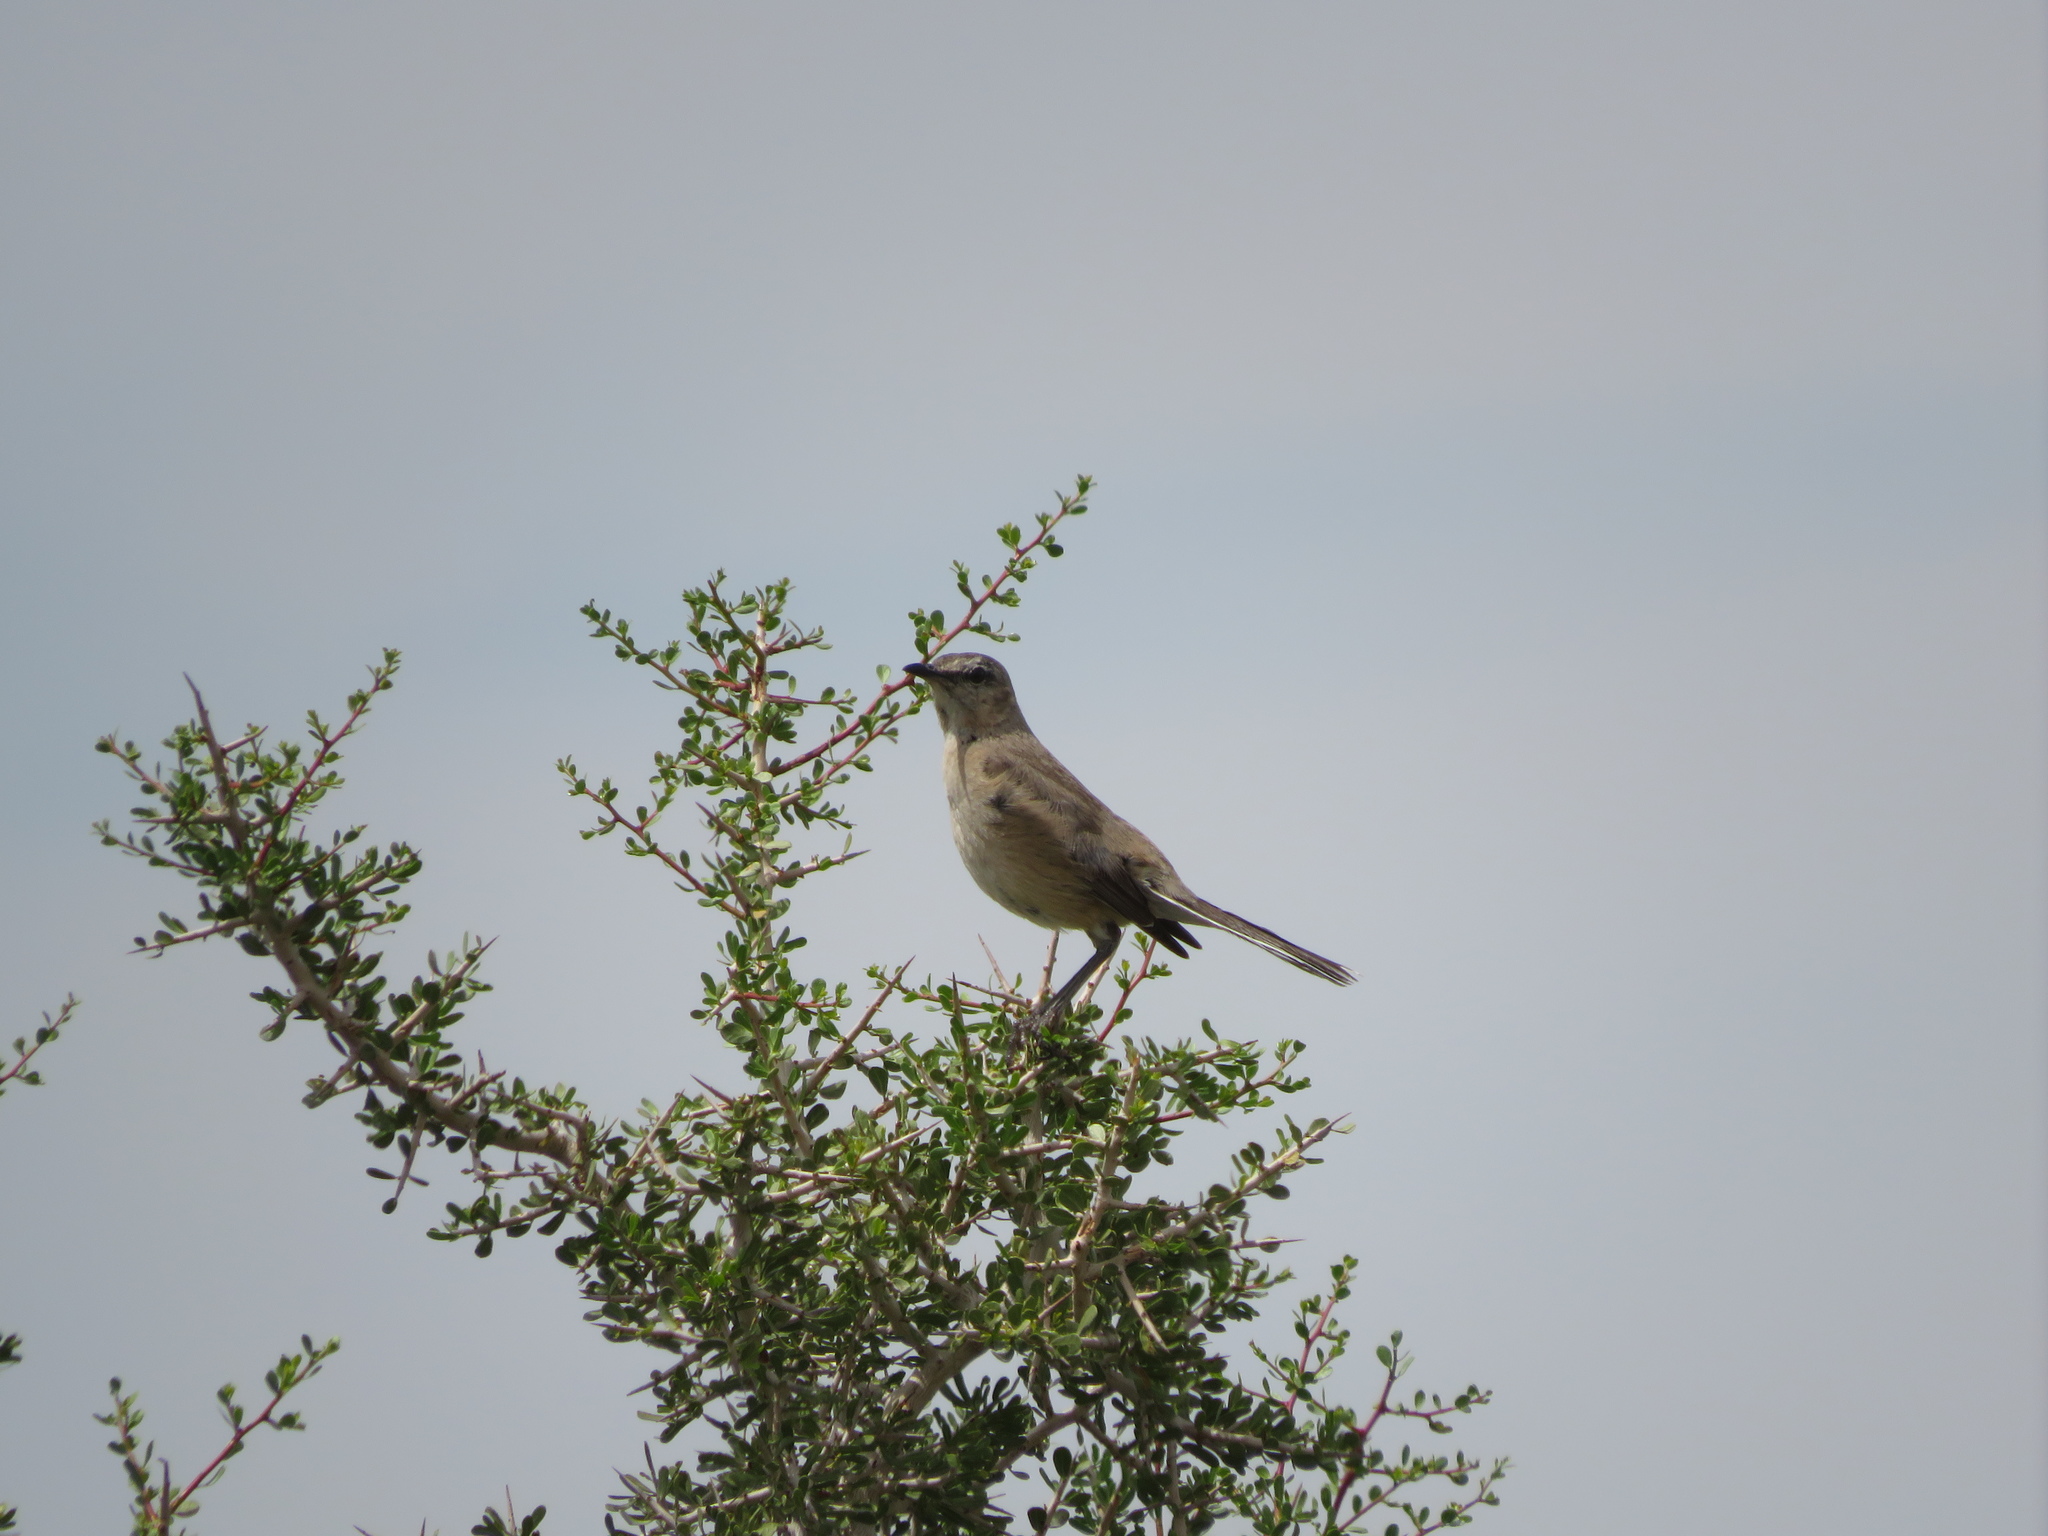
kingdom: Animalia
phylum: Chordata
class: Aves
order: Passeriformes
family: Mimidae
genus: Mimus
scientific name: Mimus patagonicus
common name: Patagonian mockingbird
